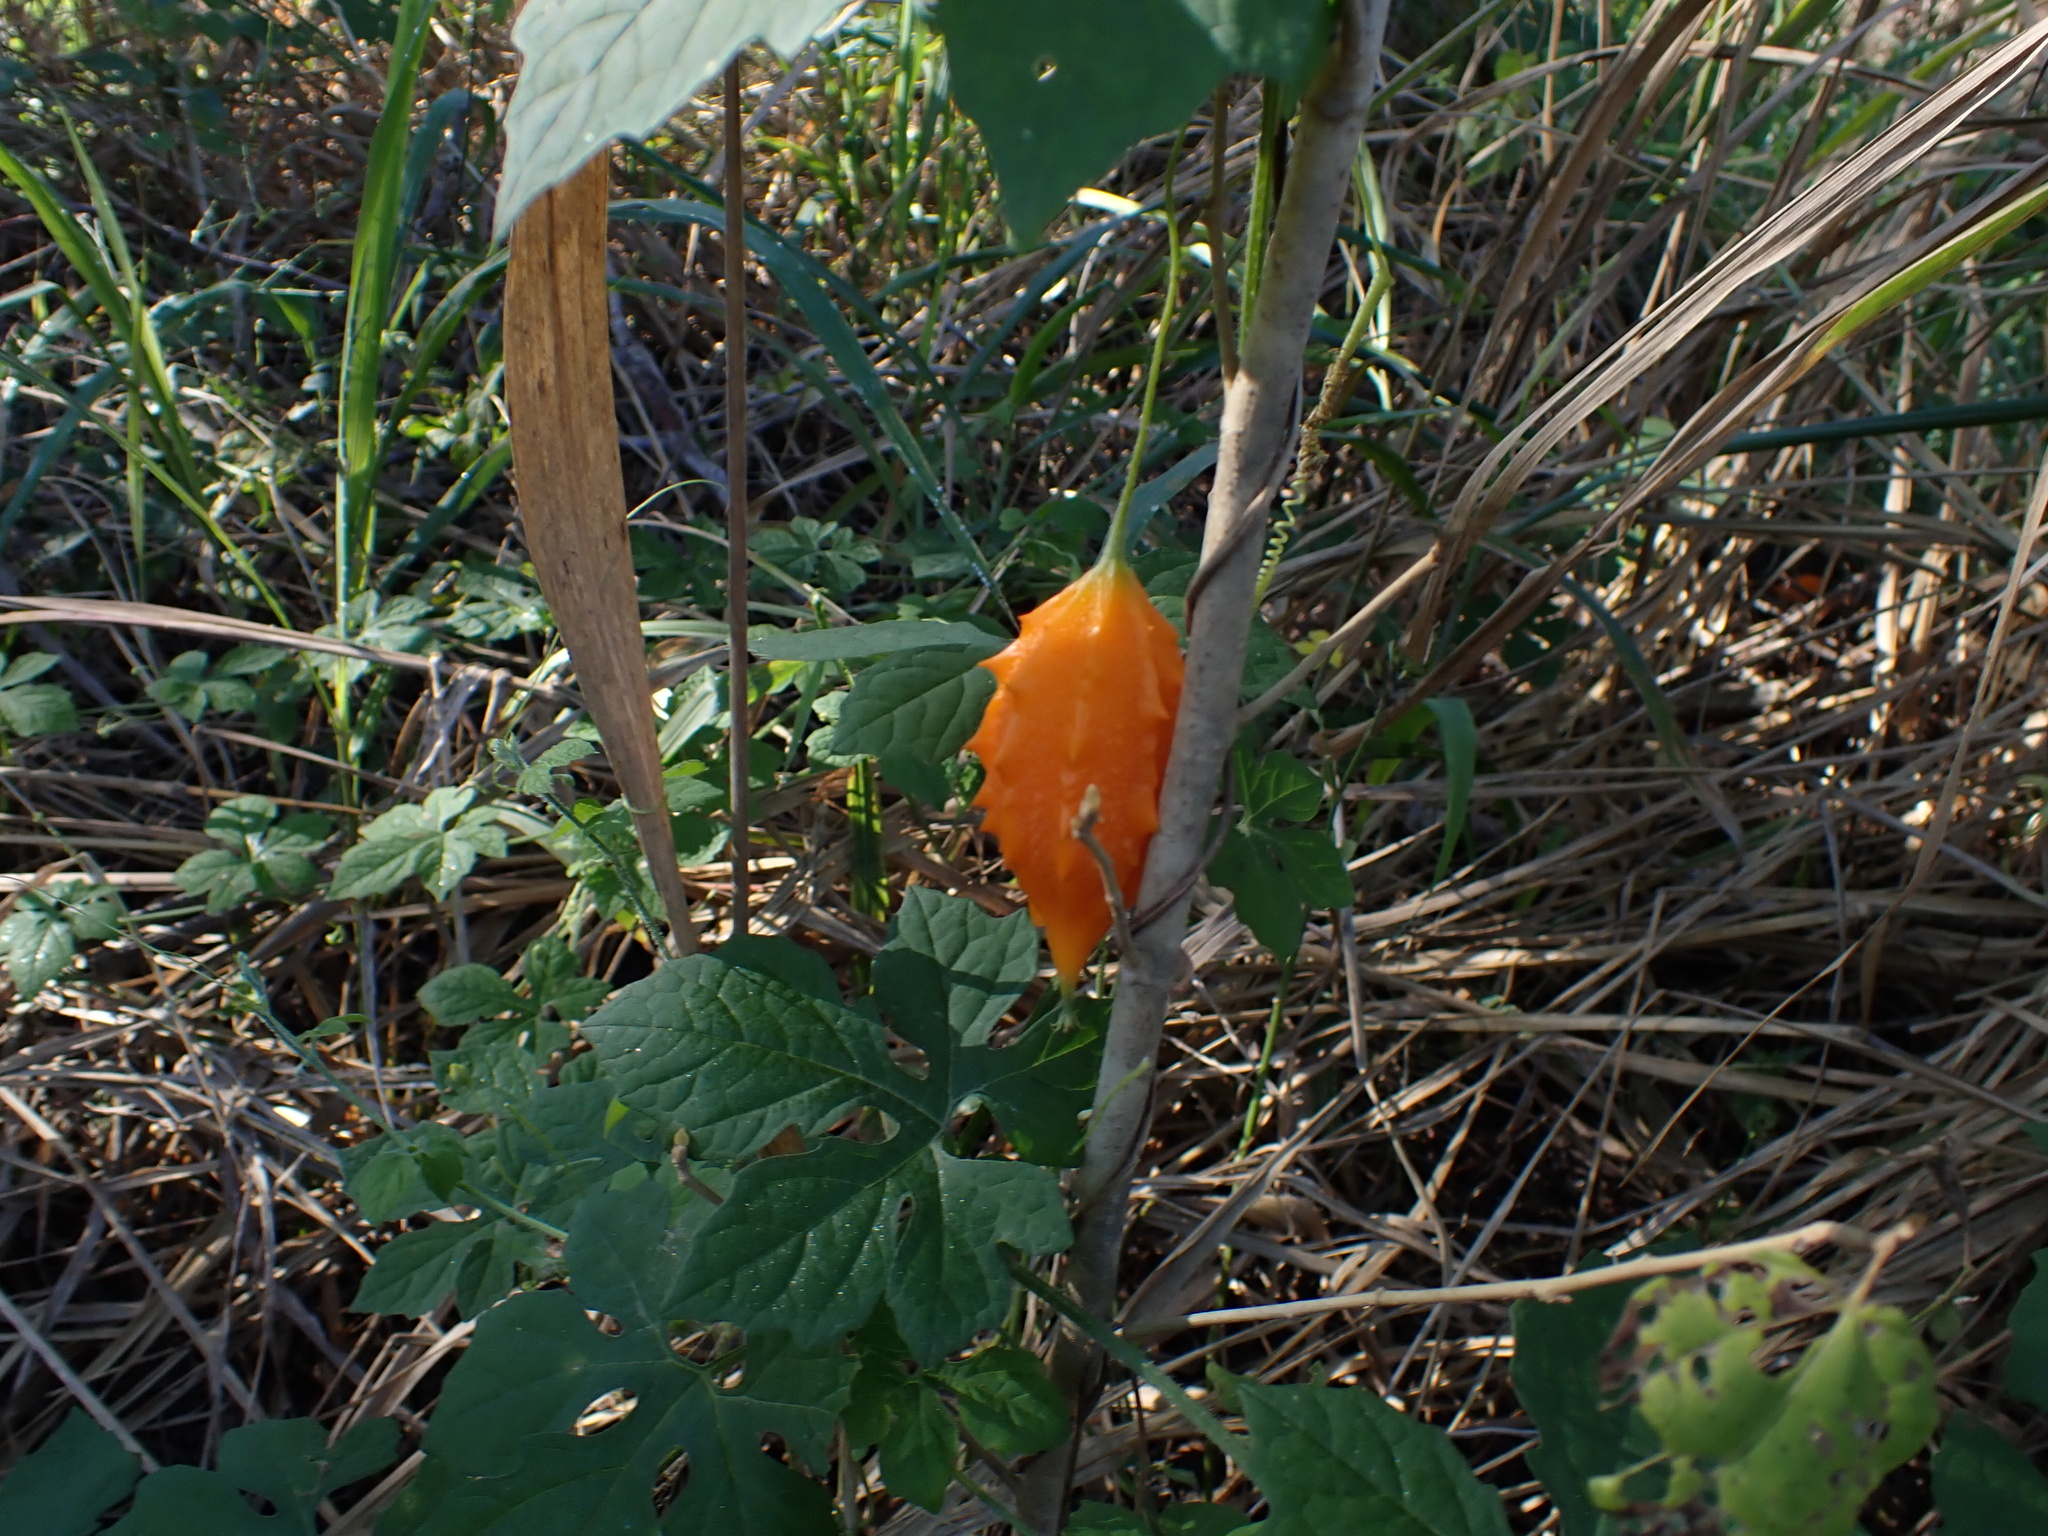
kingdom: Plantae
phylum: Tracheophyta
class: Magnoliopsida
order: Cucurbitales
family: Cucurbitaceae
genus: Momordica
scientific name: Momordica charantia
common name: Balsampear
